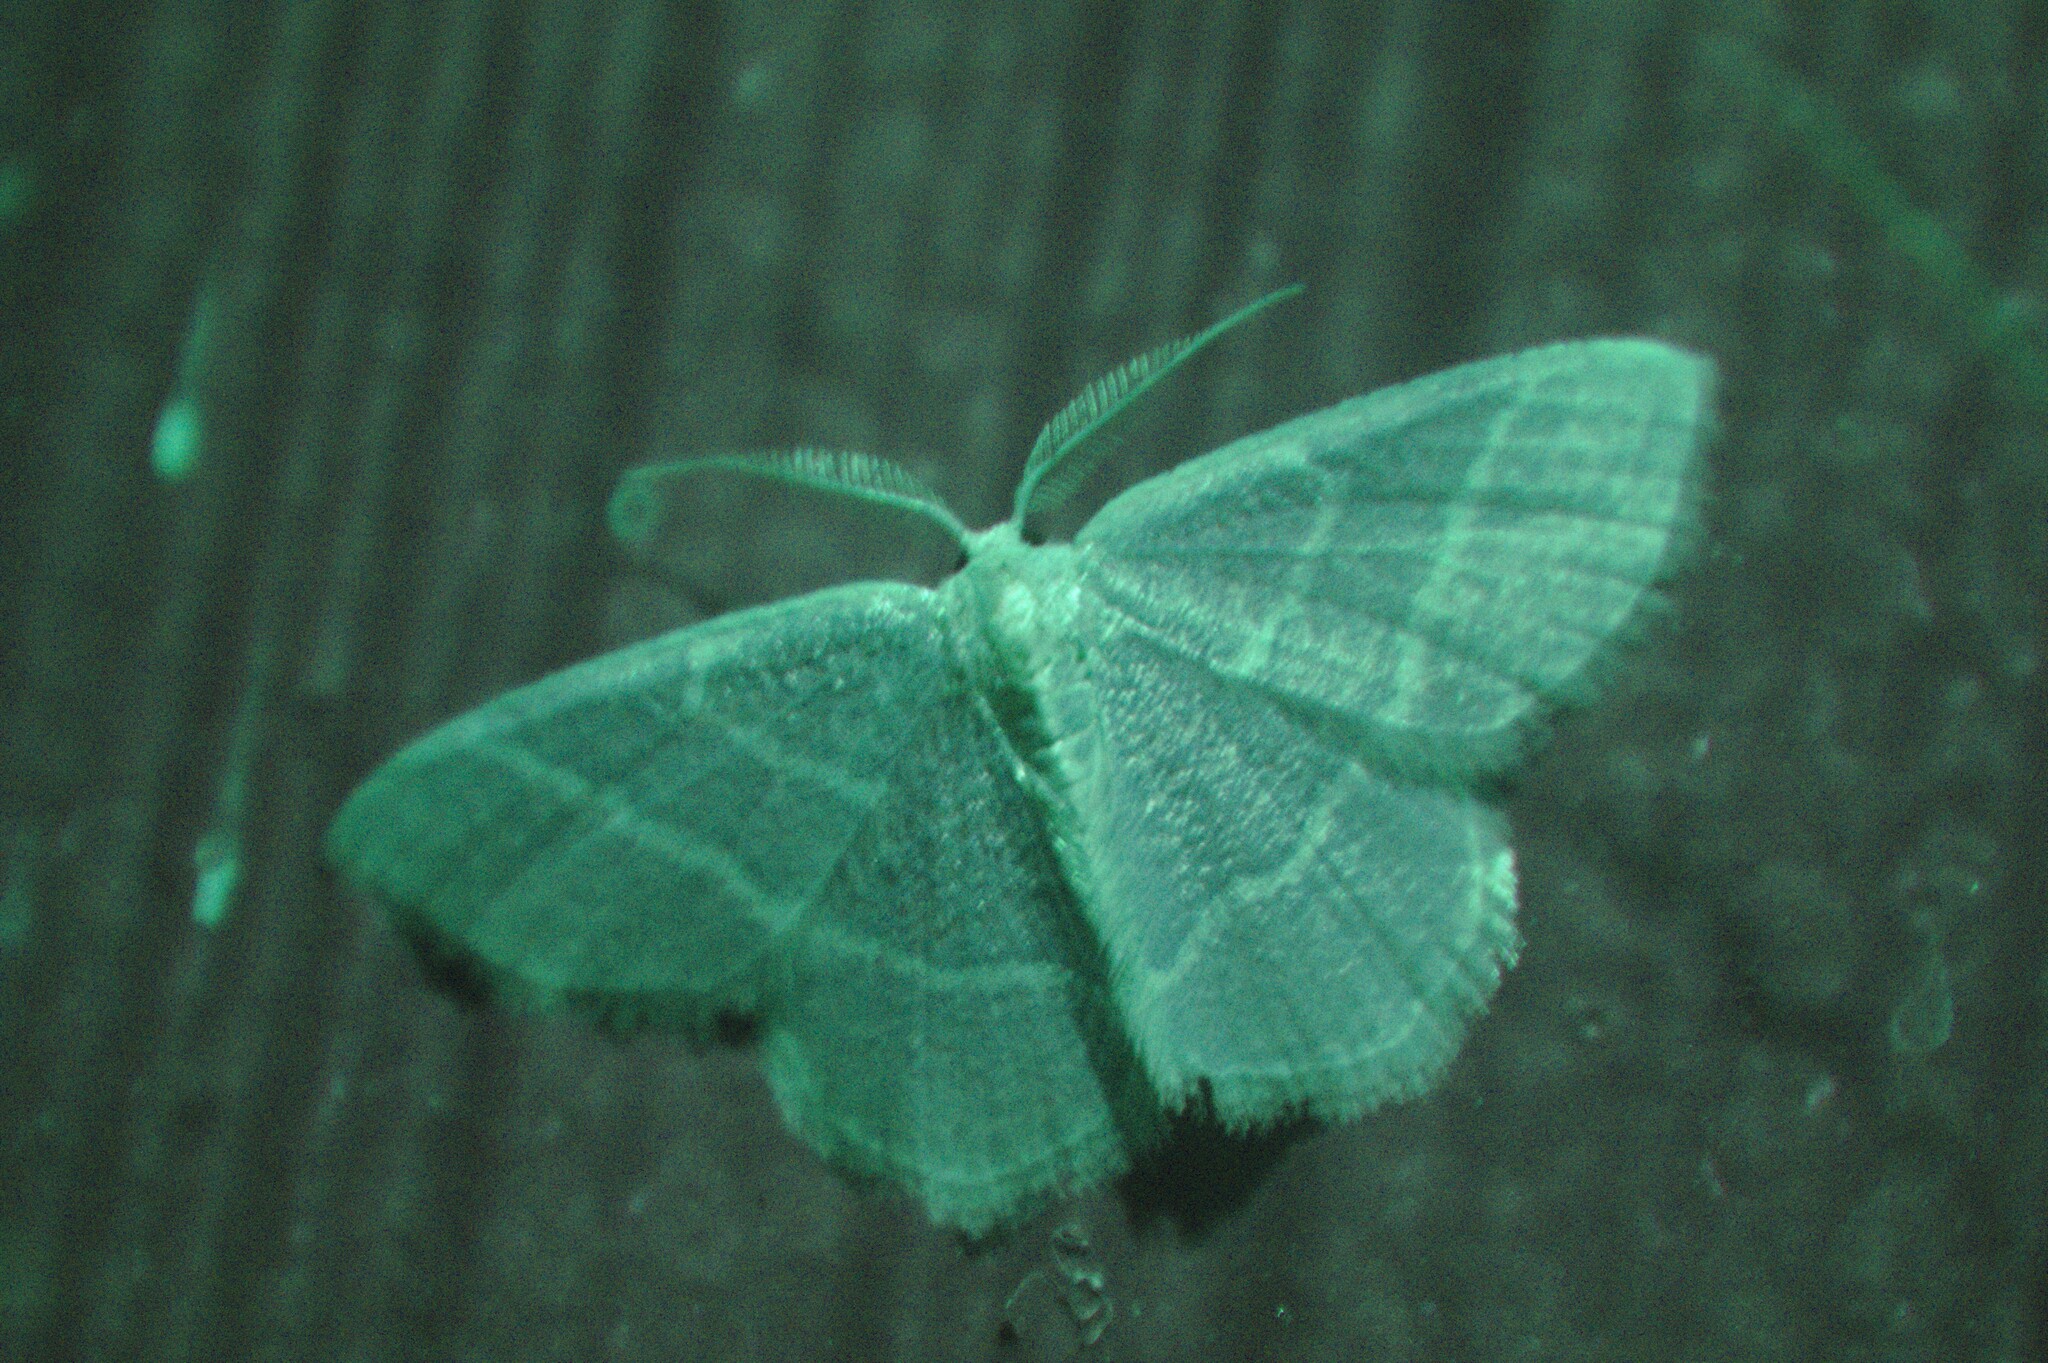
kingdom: Animalia
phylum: Arthropoda
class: Insecta
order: Lepidoptera
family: Geometridae
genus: Chlorochlamys
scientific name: Chlorochlamys chloroleucaria
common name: Blackberry looper
